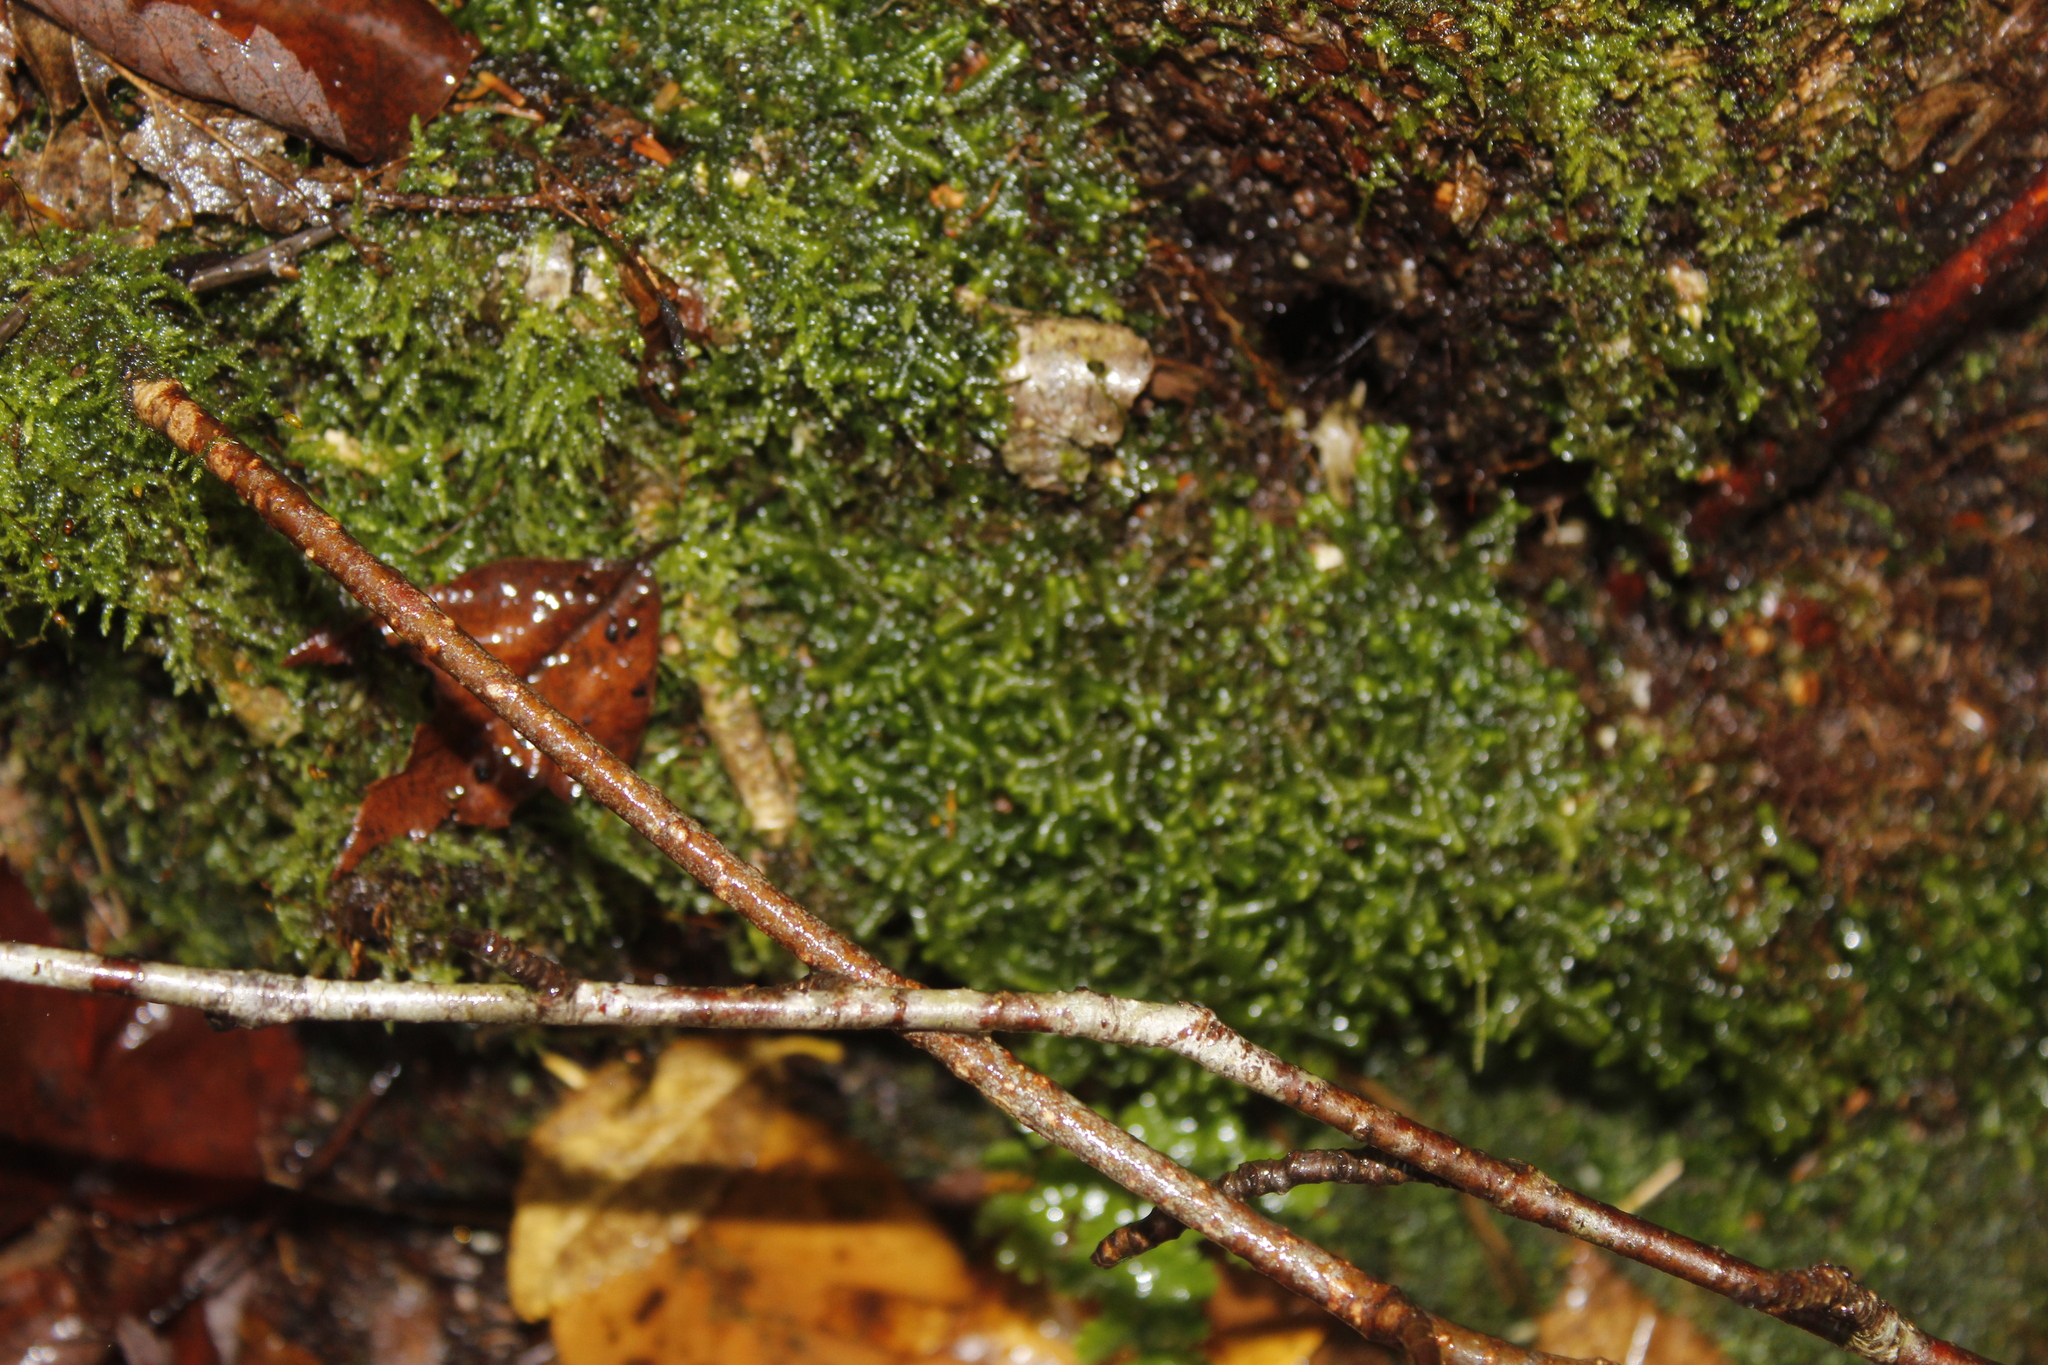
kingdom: Plantae
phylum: Marchantiophyta
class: Jungermanniopsida
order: Jungermanniales
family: Lepidoziaceae
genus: Bazzania
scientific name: Bazzania trilobata
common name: Three-lobed whipwort
